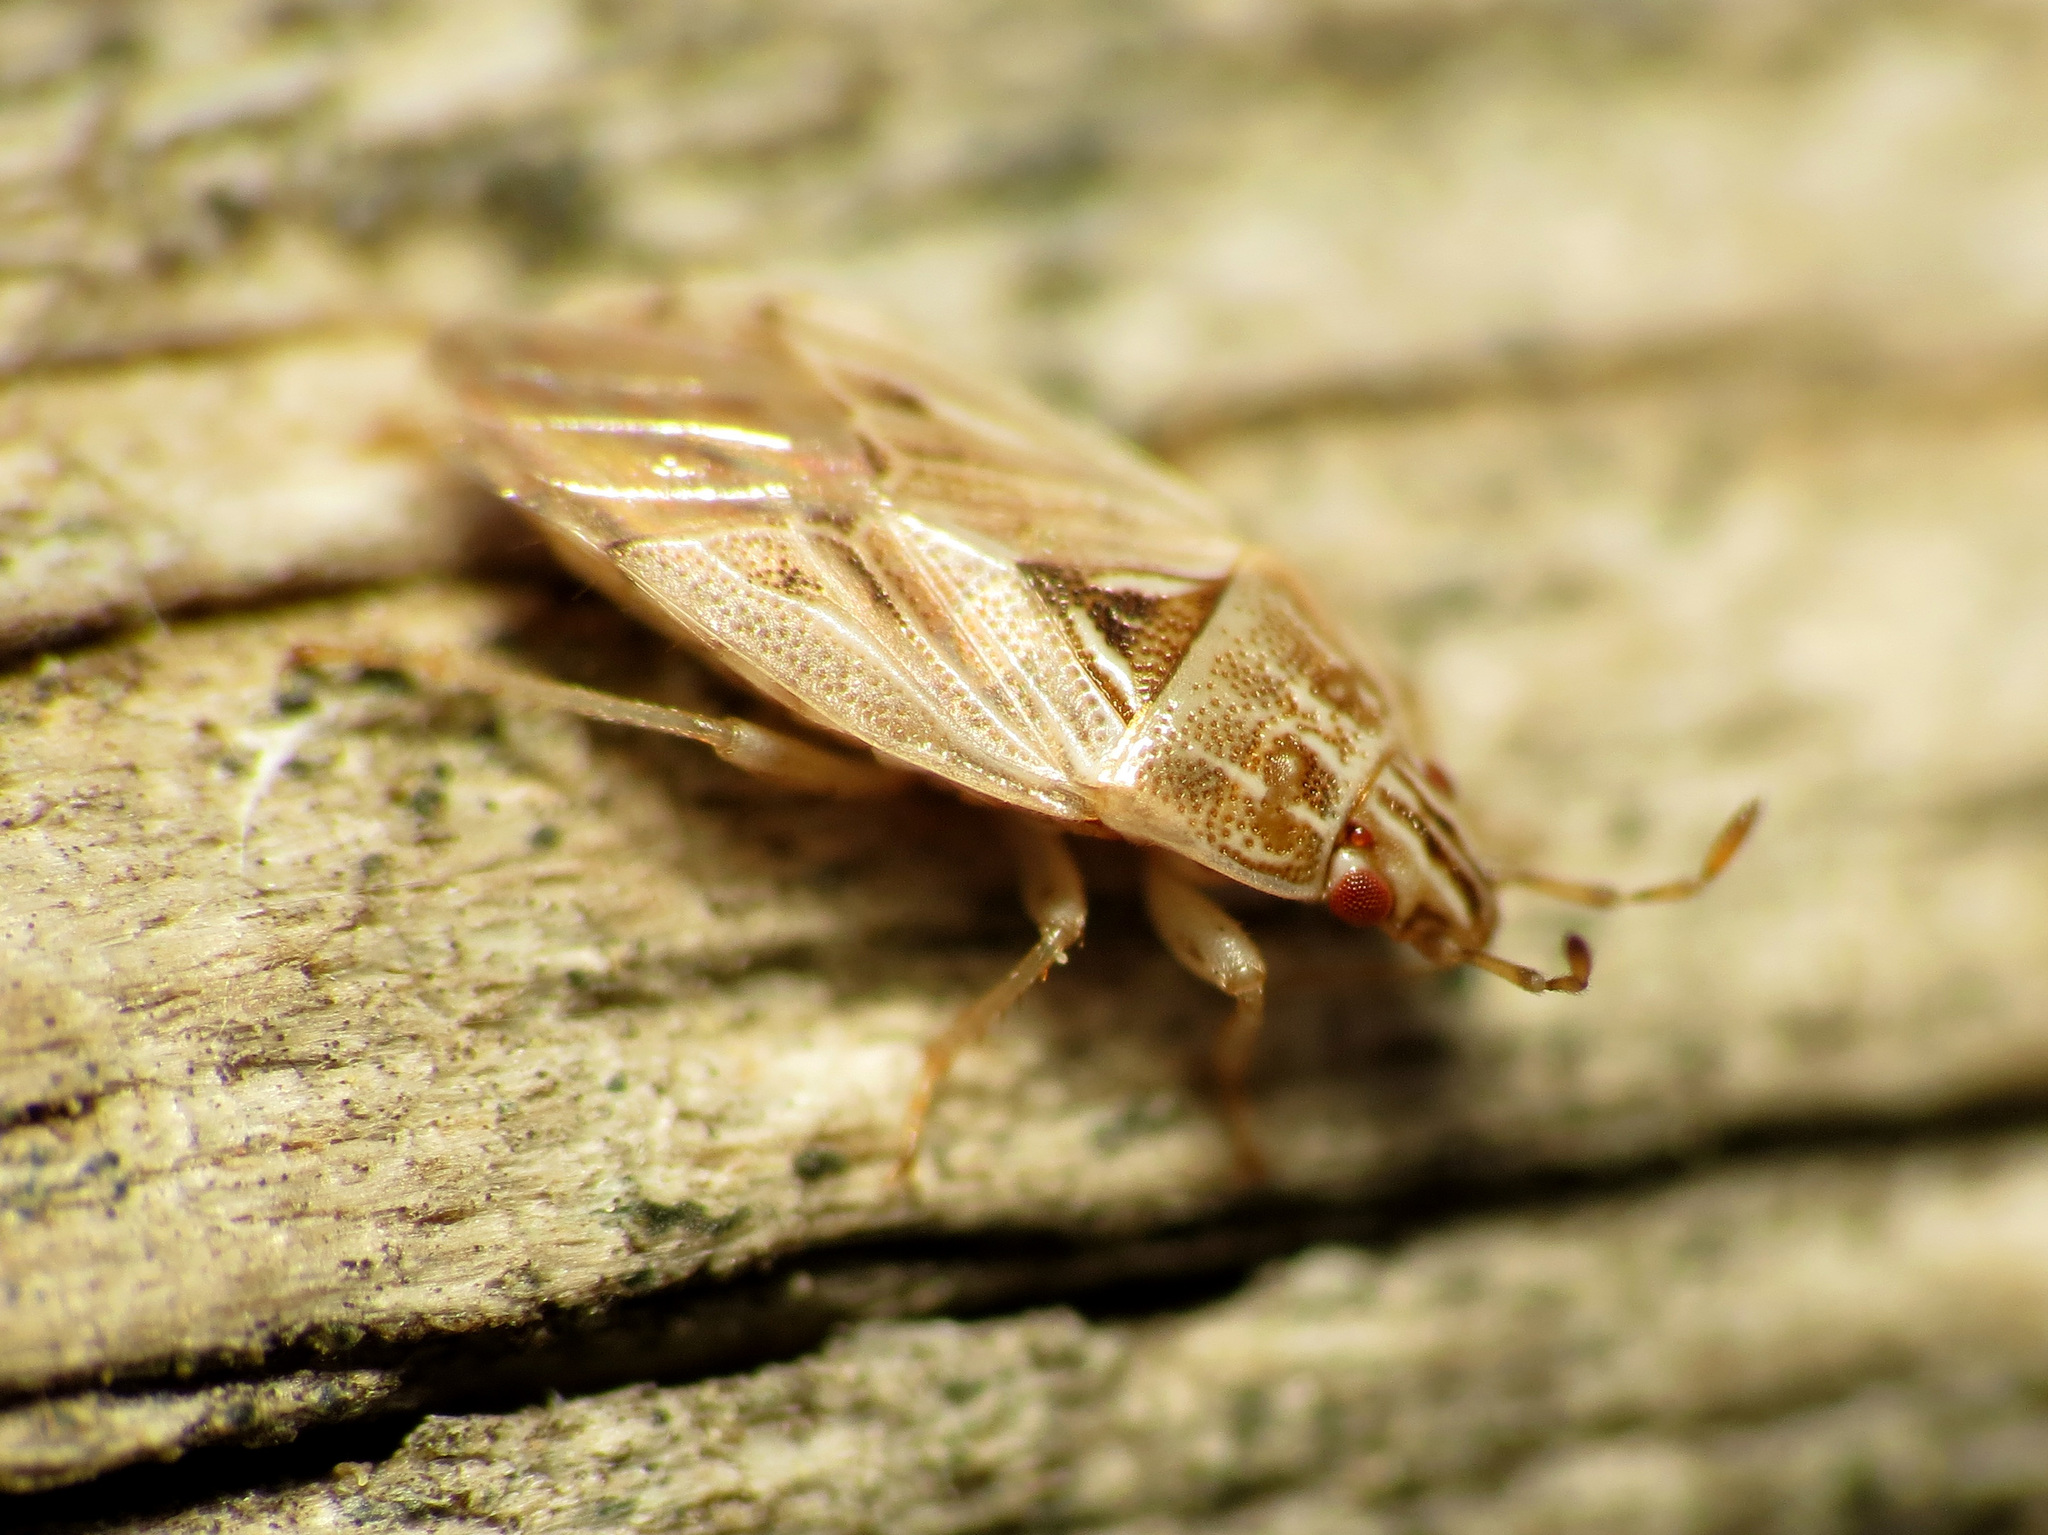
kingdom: Animalia
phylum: Arthropoda
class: Insecta
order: Hemiptera
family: Artheneidae
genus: Holcocranum
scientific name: Holcocranum saturejae
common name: Cattail bug
